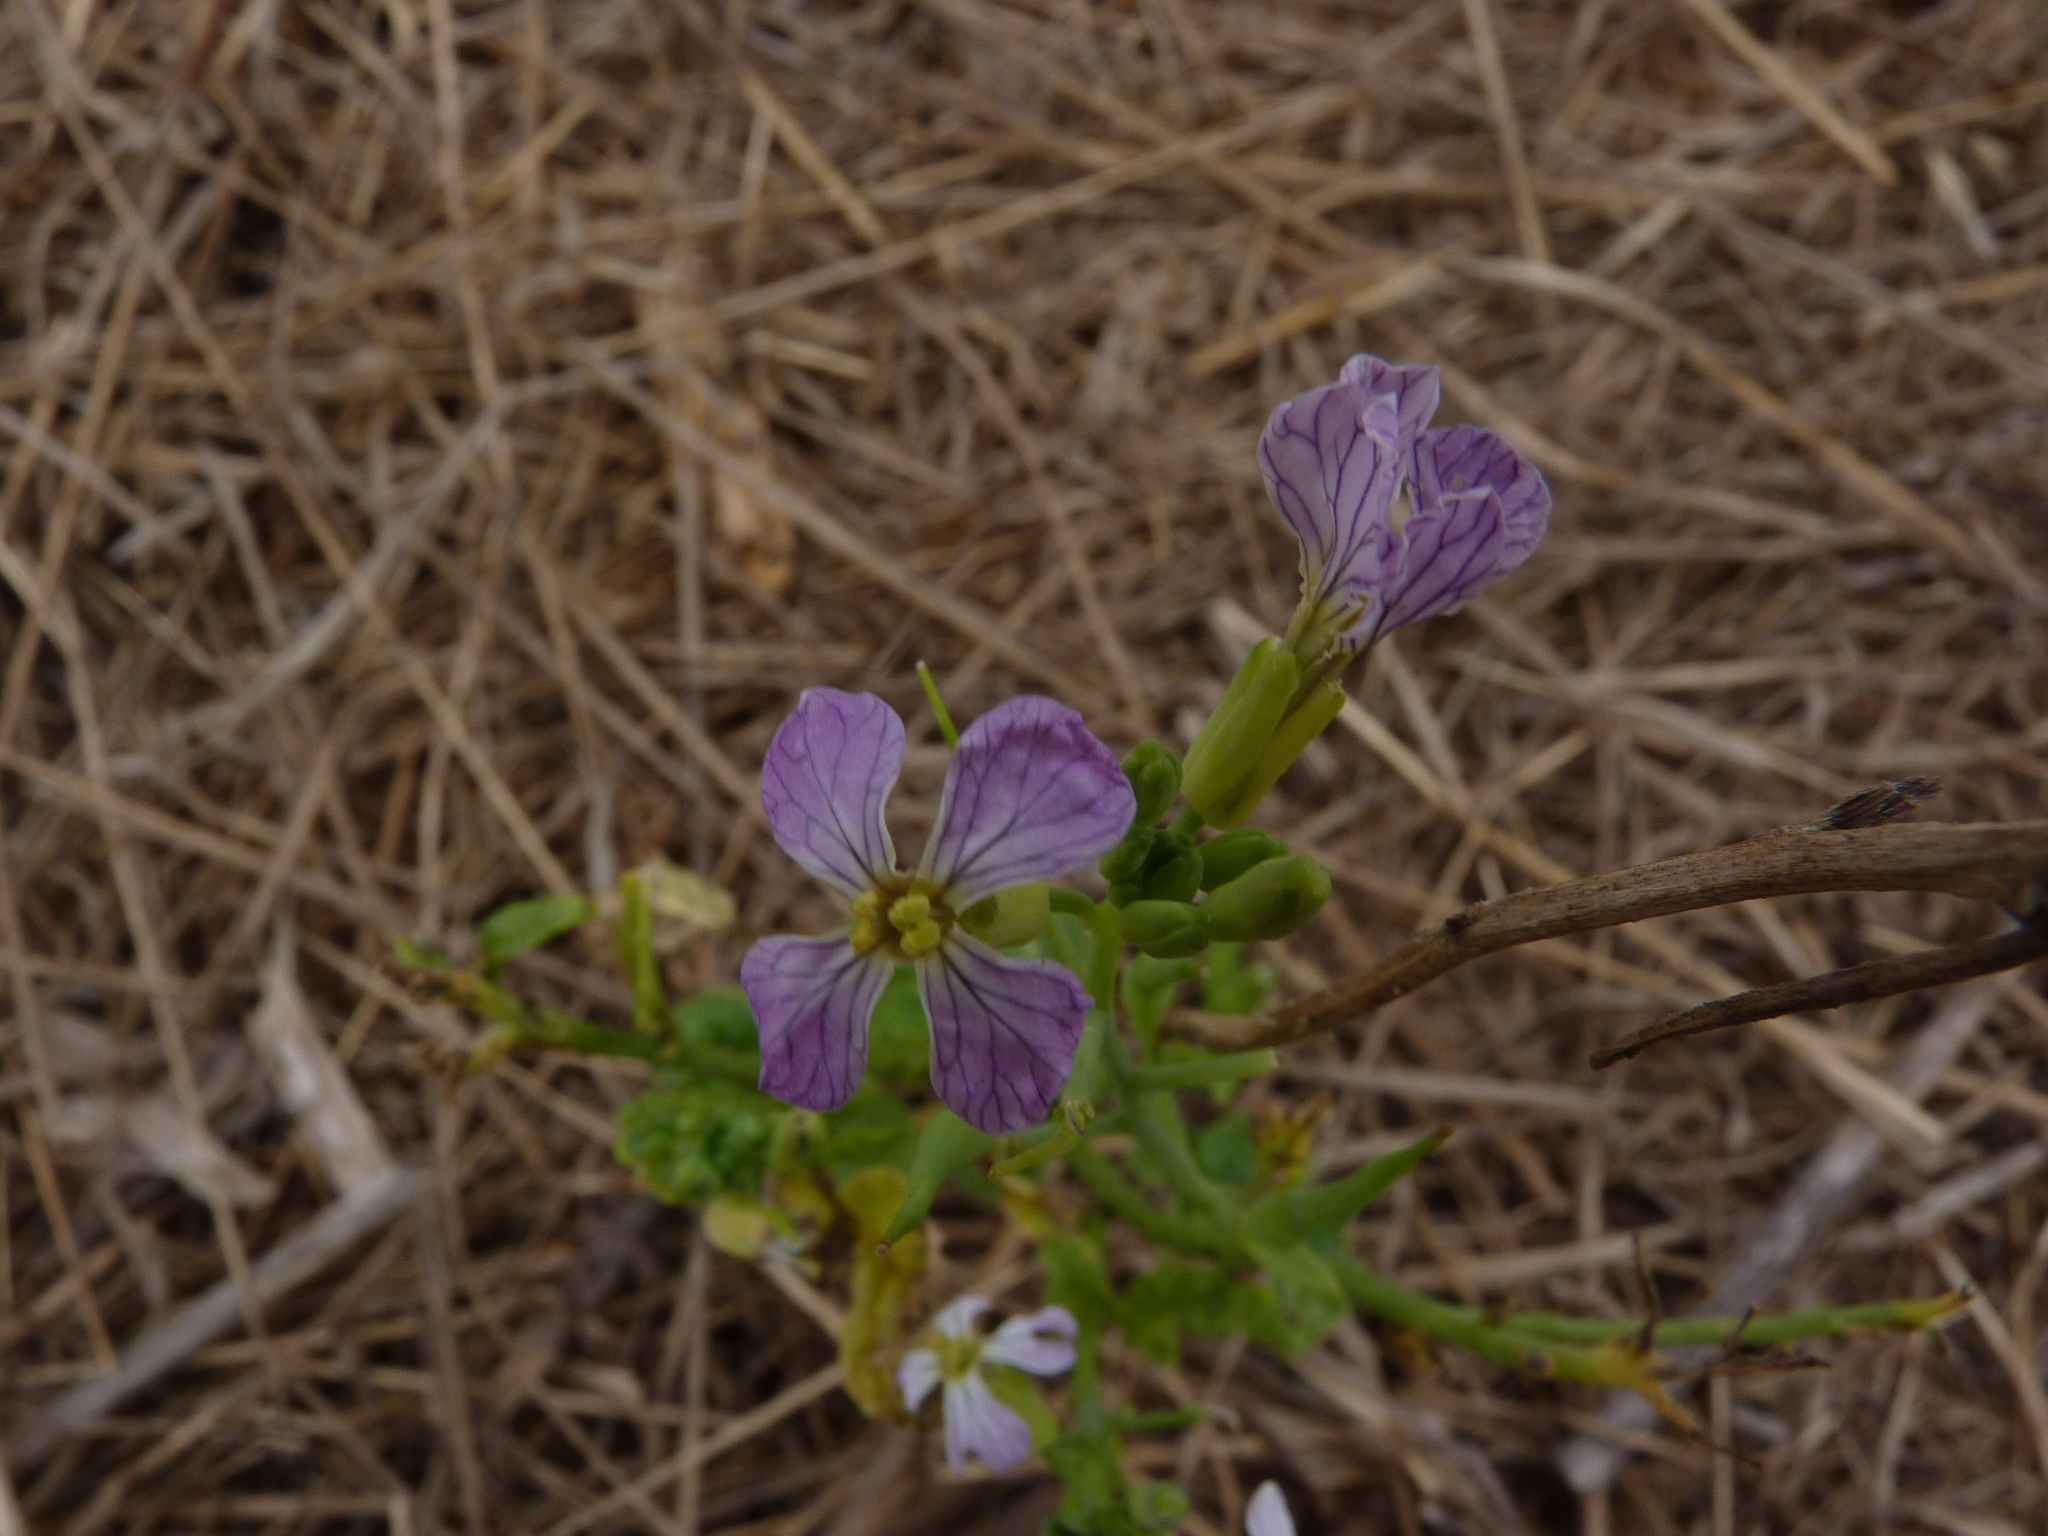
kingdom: Plantae
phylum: Tracheophyta
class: Magnoliopsida
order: Brassicales
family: Brassicaceae
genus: Raphanus
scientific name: Raphanus sativus
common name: Cultivated radish
